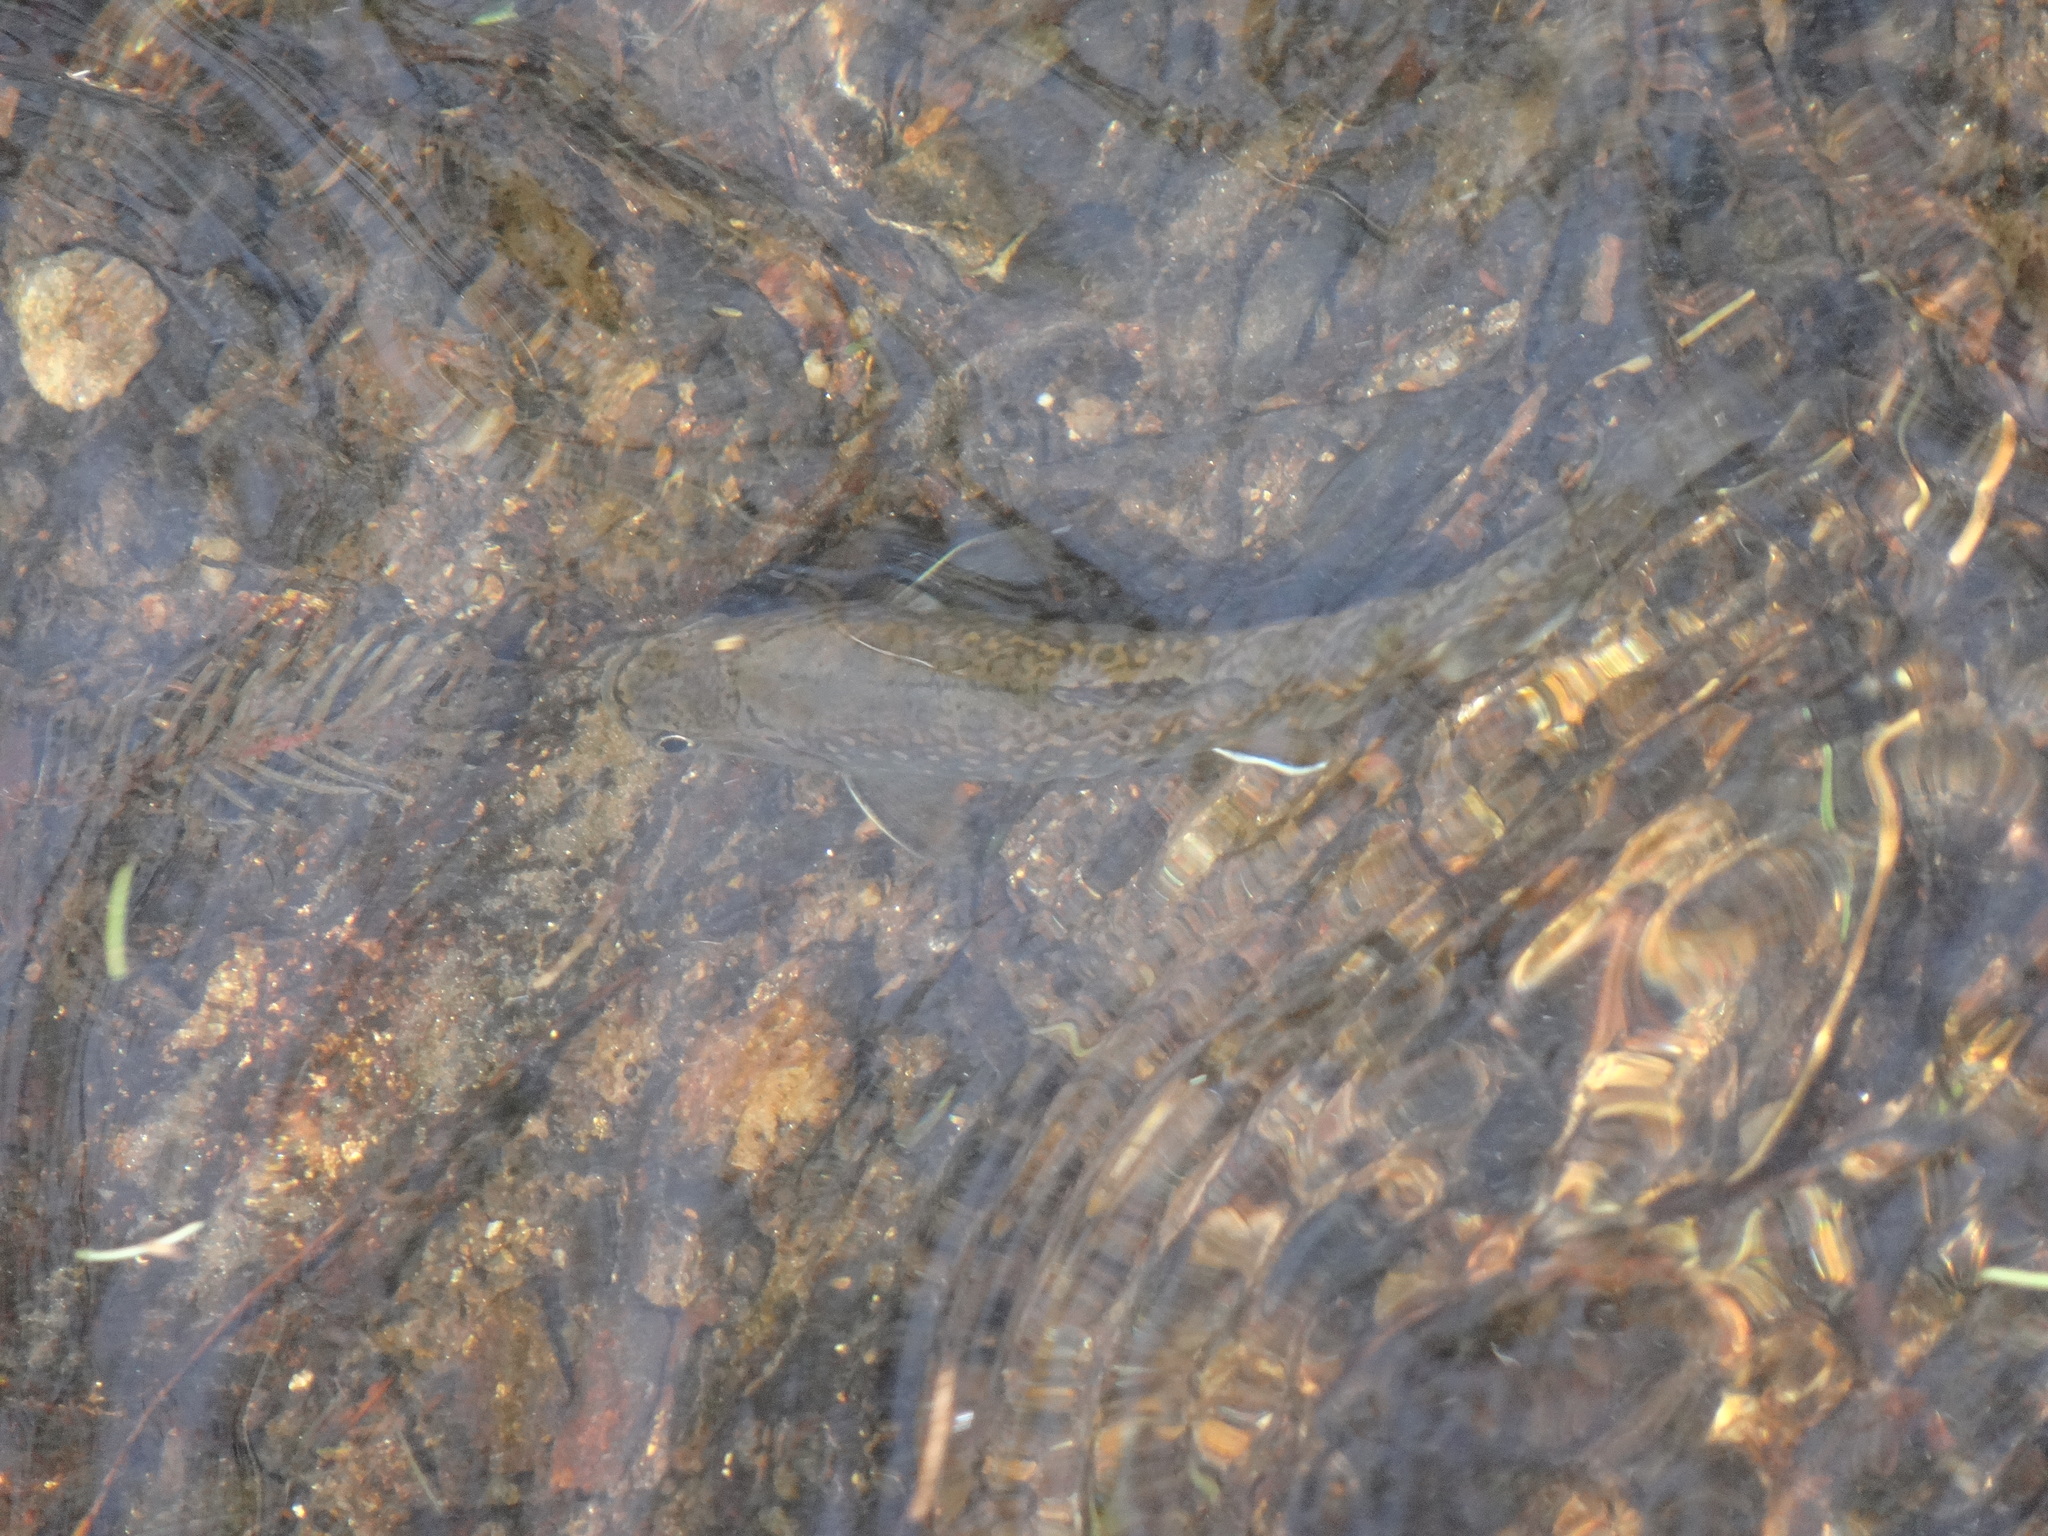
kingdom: Animalia
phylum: Chordata
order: Salmoniformes
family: Salmonidae
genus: Salvelinus
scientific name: Salvelinus fontinalis
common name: Brook trout
